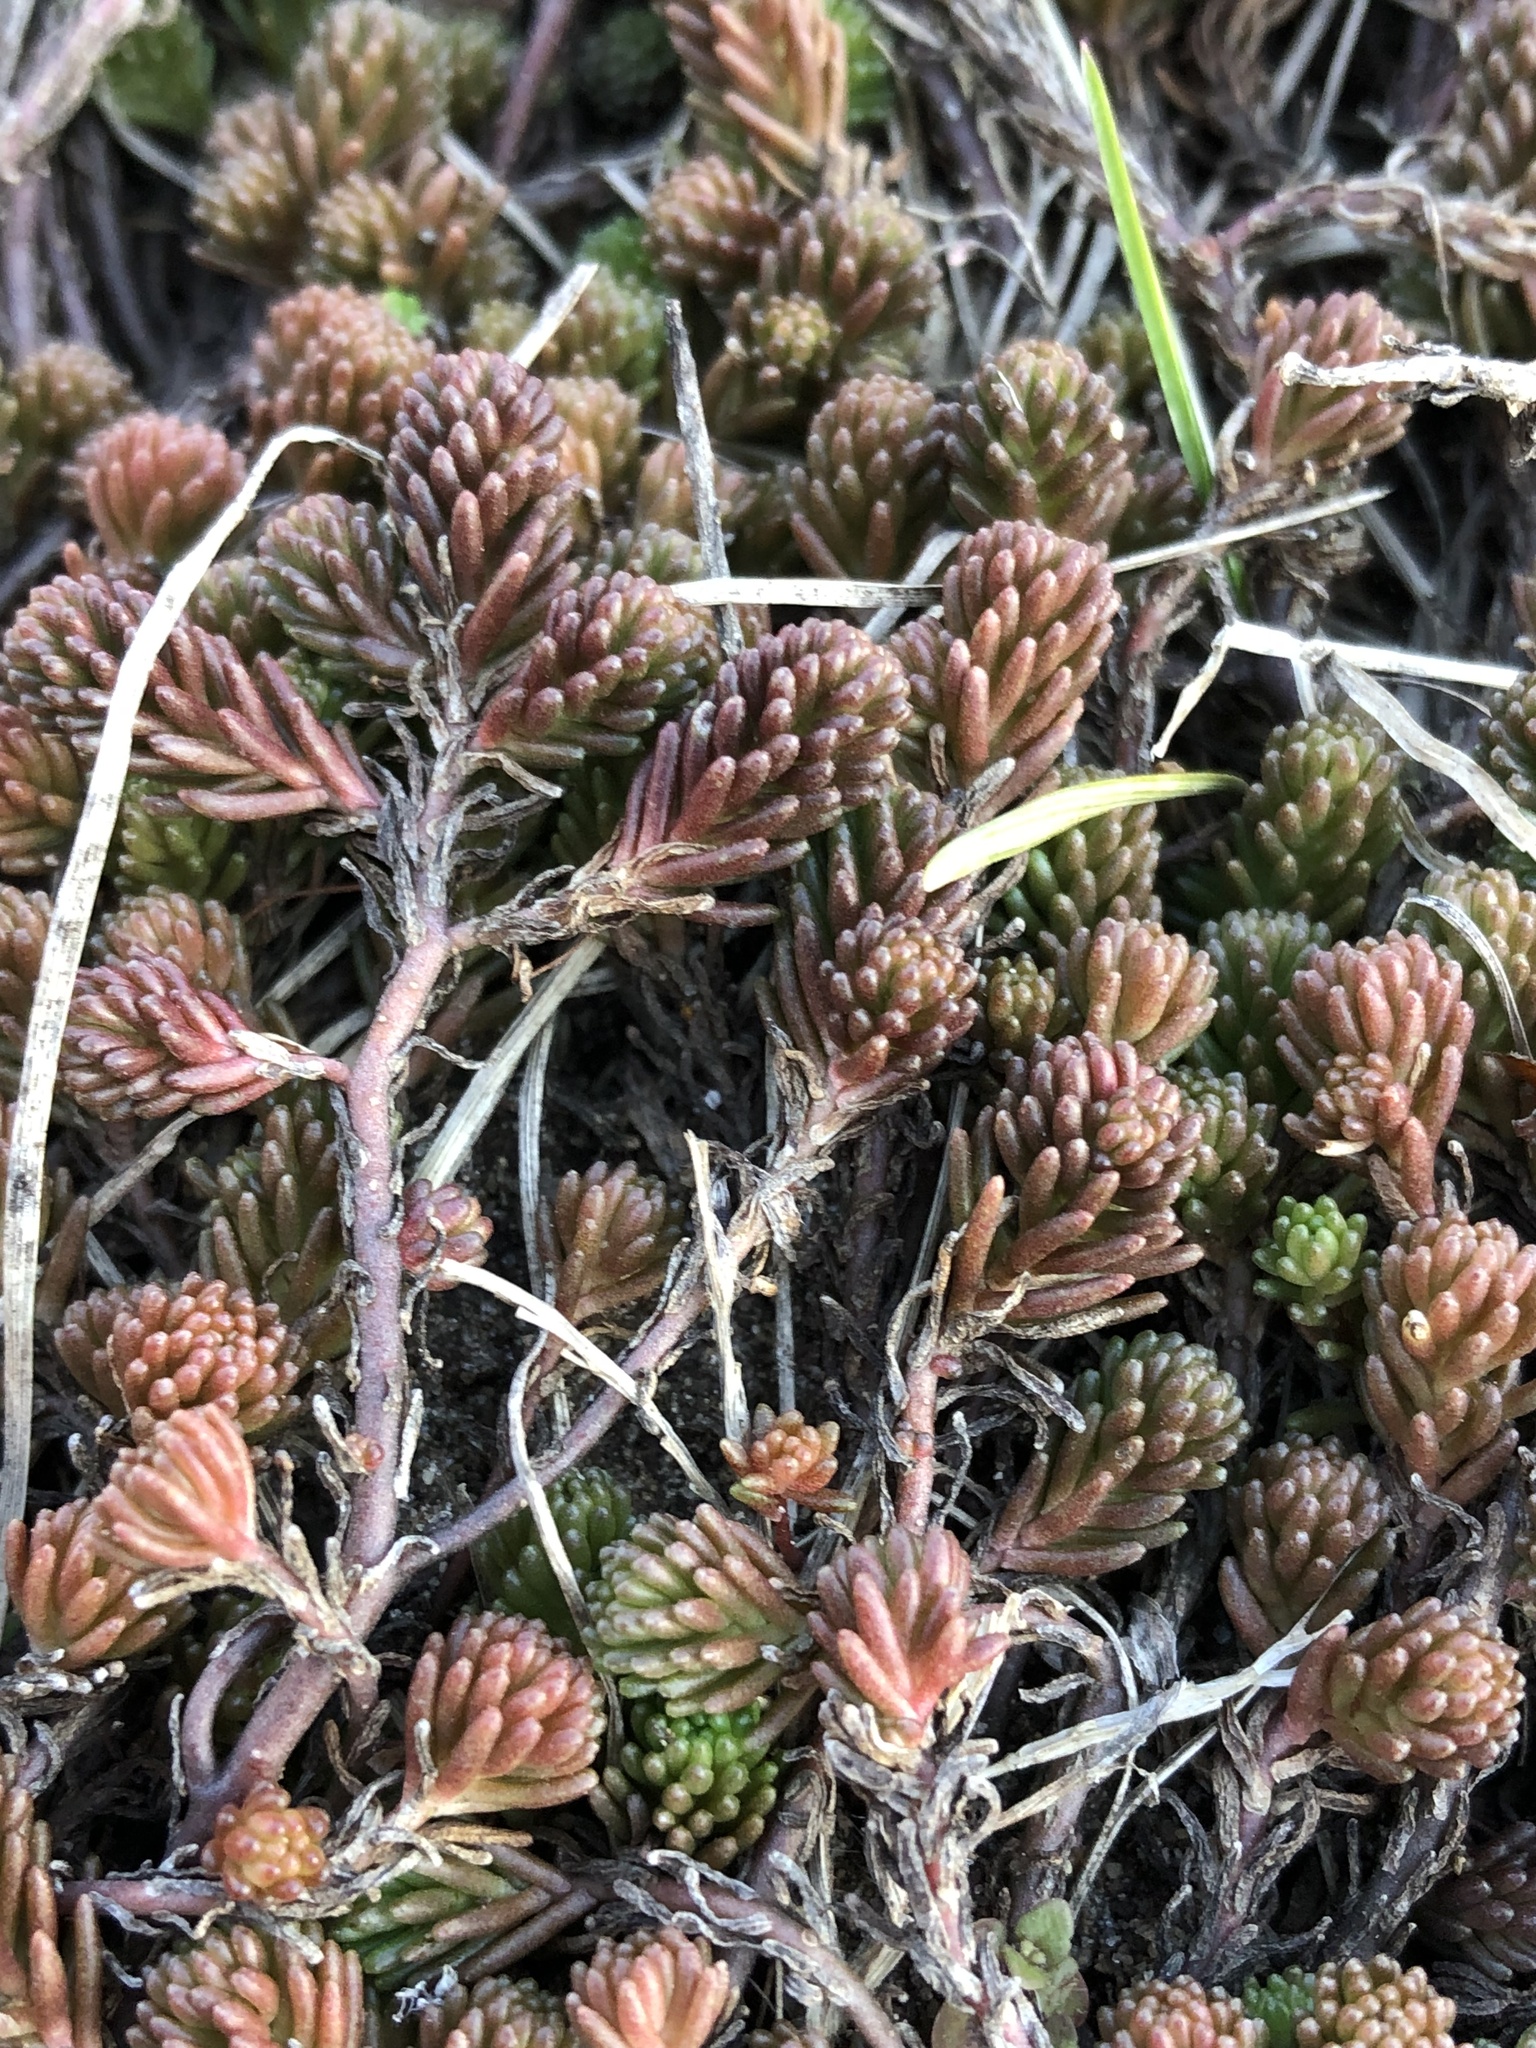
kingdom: Plantae
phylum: Tracheophyta
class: Magnoliopsida
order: Saxifragales
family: Crassulaceae
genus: Sedum
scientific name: Sedum sexangulare
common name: Tasteless stonecrop
